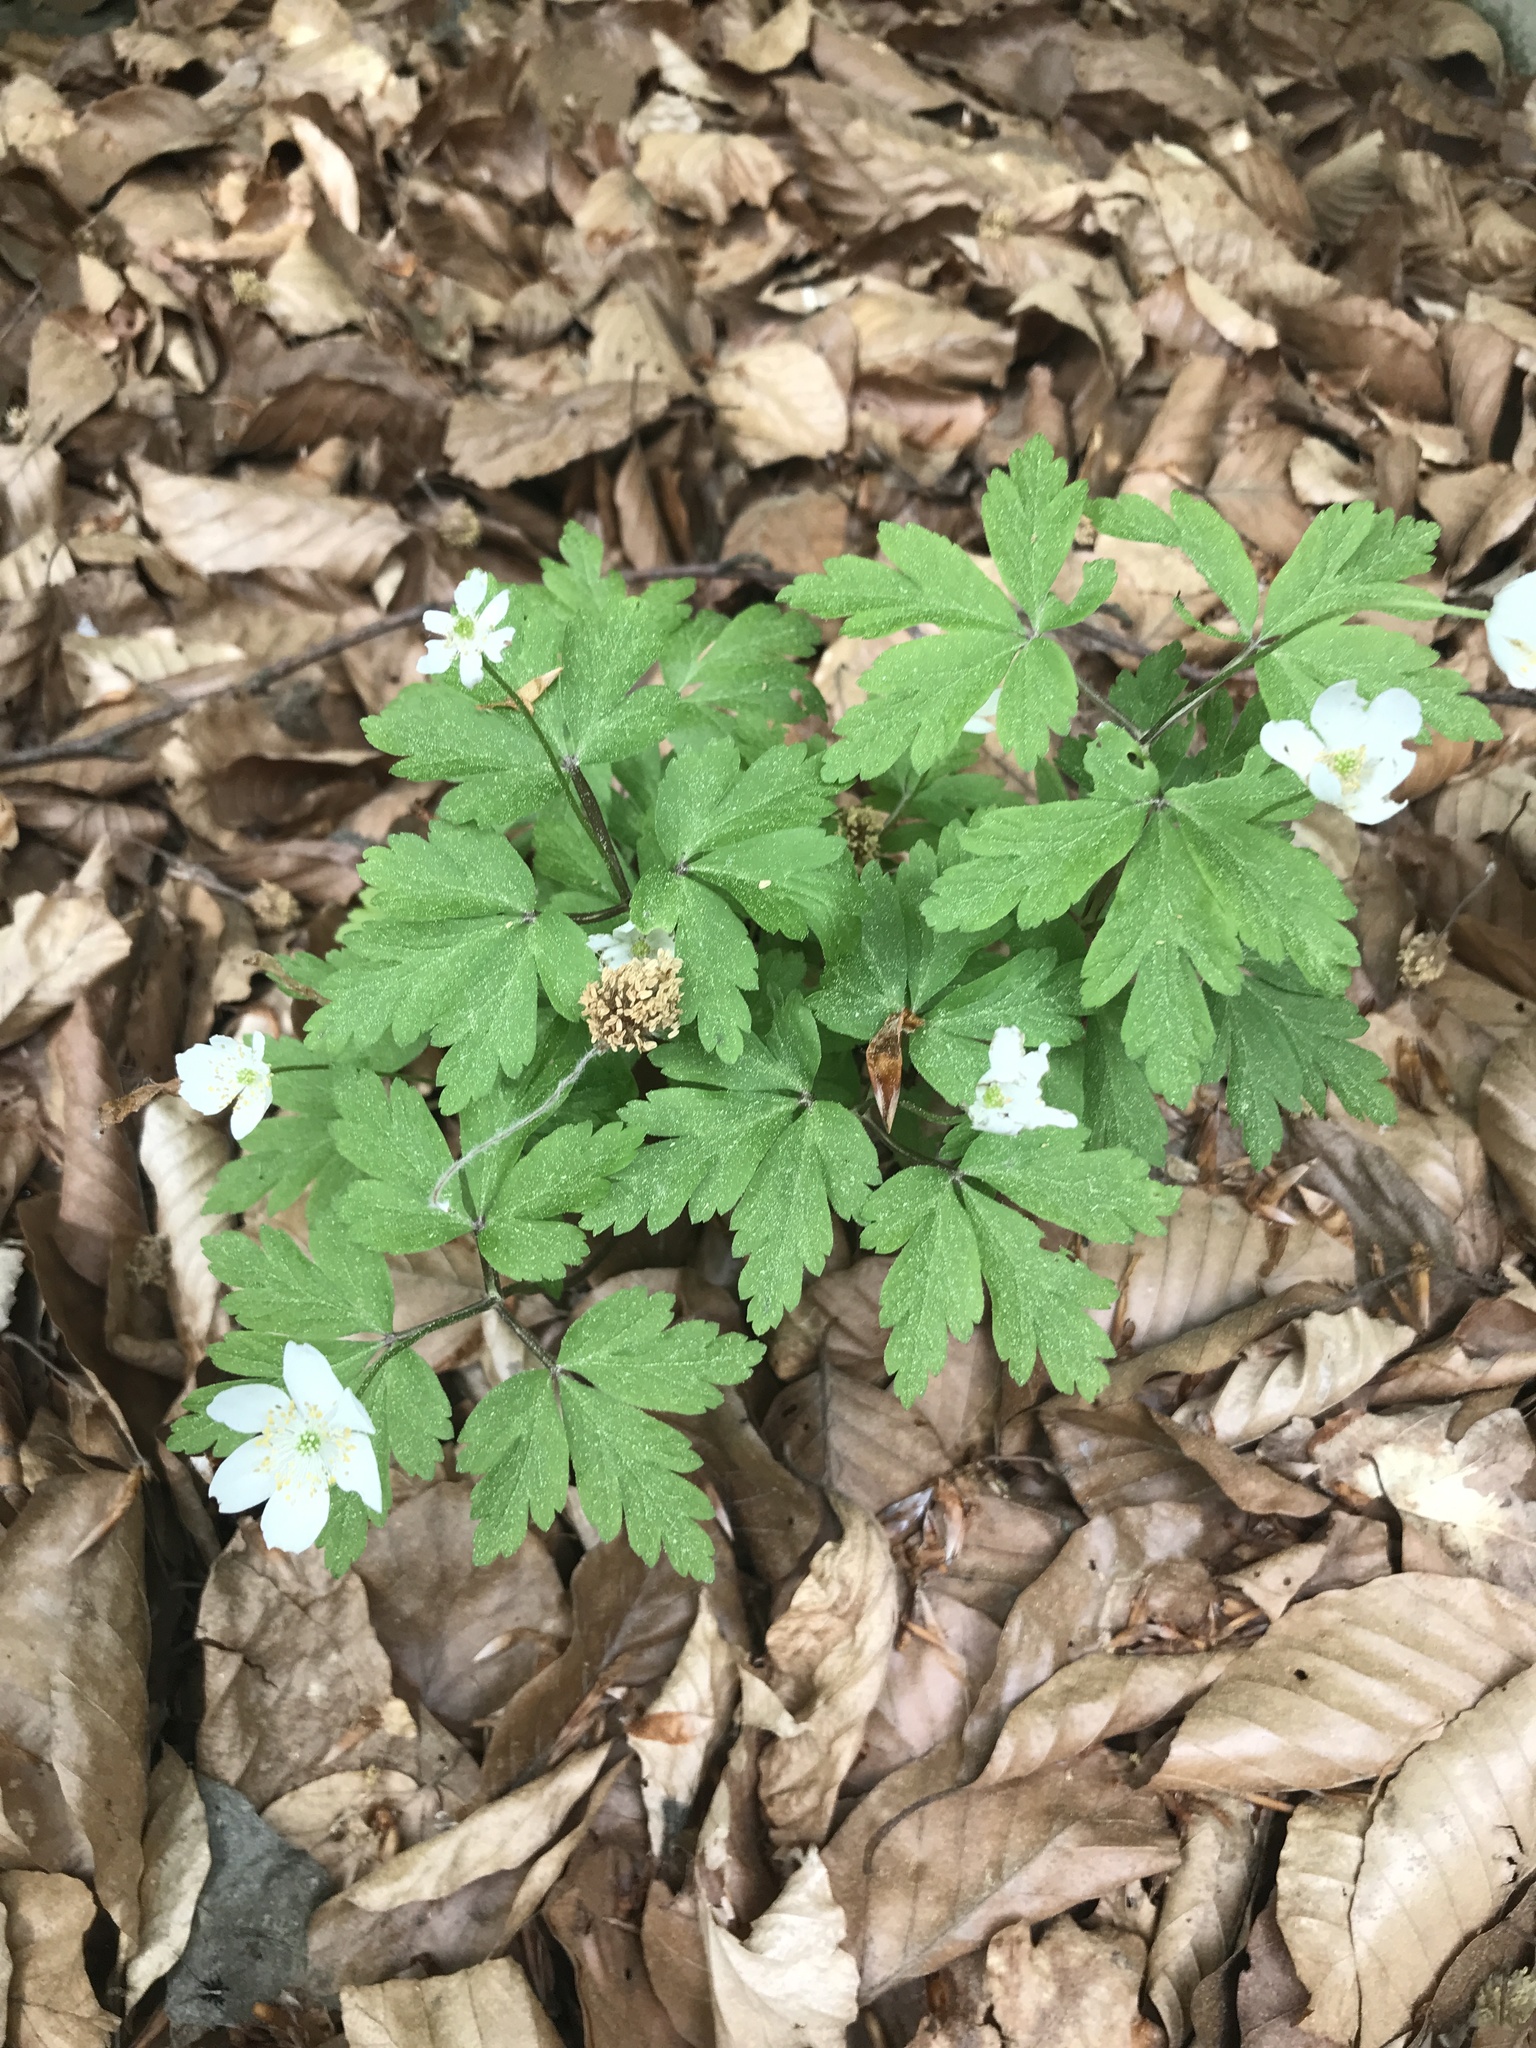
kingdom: Plantae
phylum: Tracheophyta
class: Magnoliopsida
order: Ranunculales
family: Ranunculaceae
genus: Anemone
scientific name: Anemone nemorosa
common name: Wood anemone
